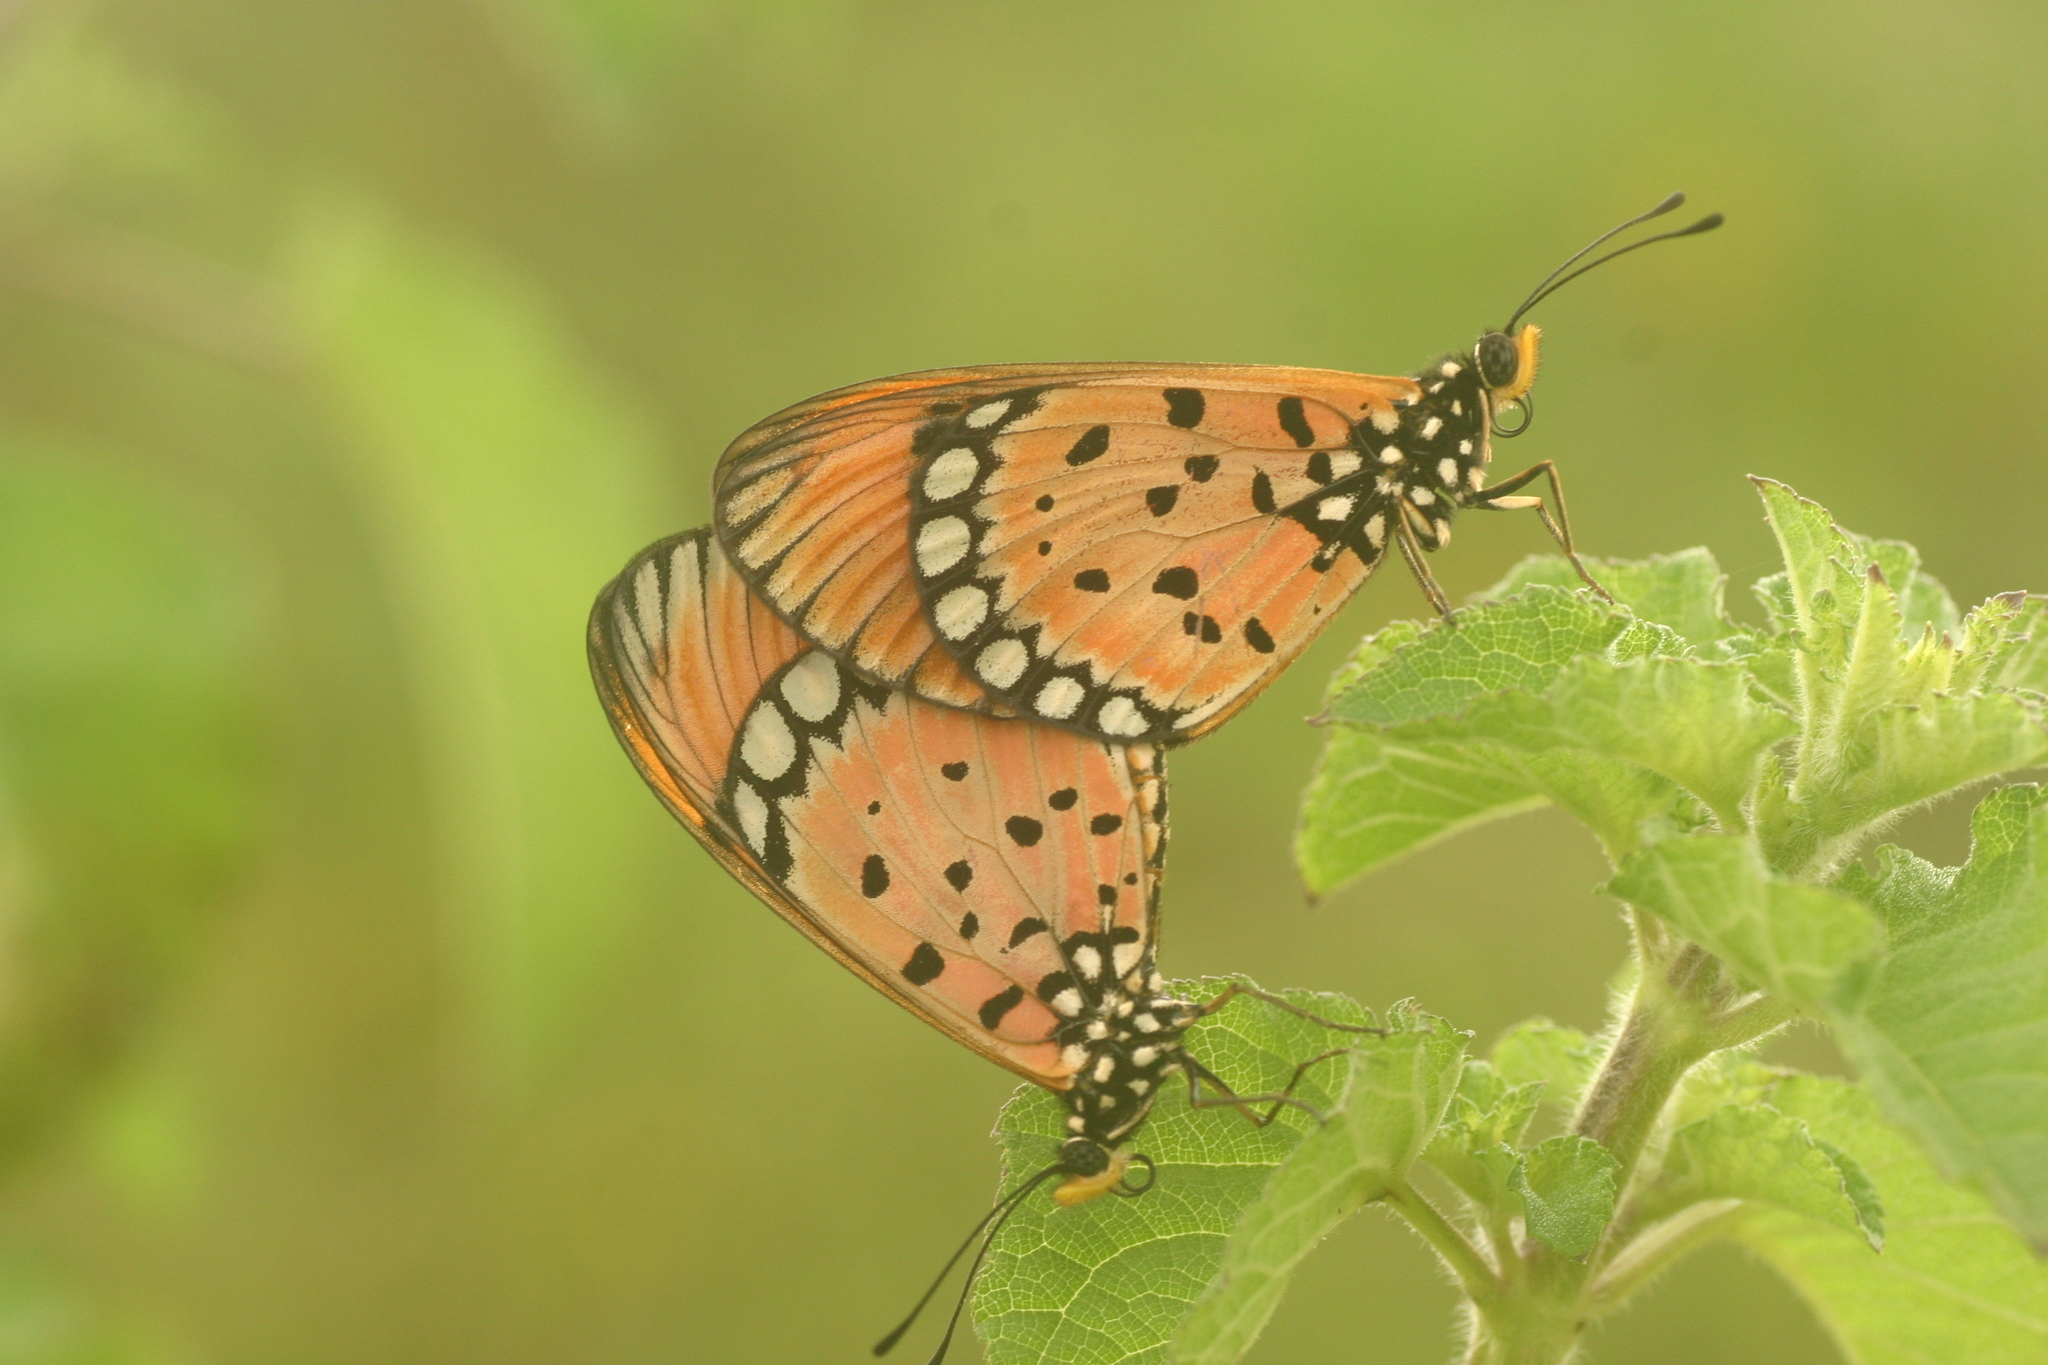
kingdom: Animalia
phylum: Arthropoda
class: Insecta
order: Lepidoptera
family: Nymphalidae
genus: Acraea
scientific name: Acraea terpsicore
